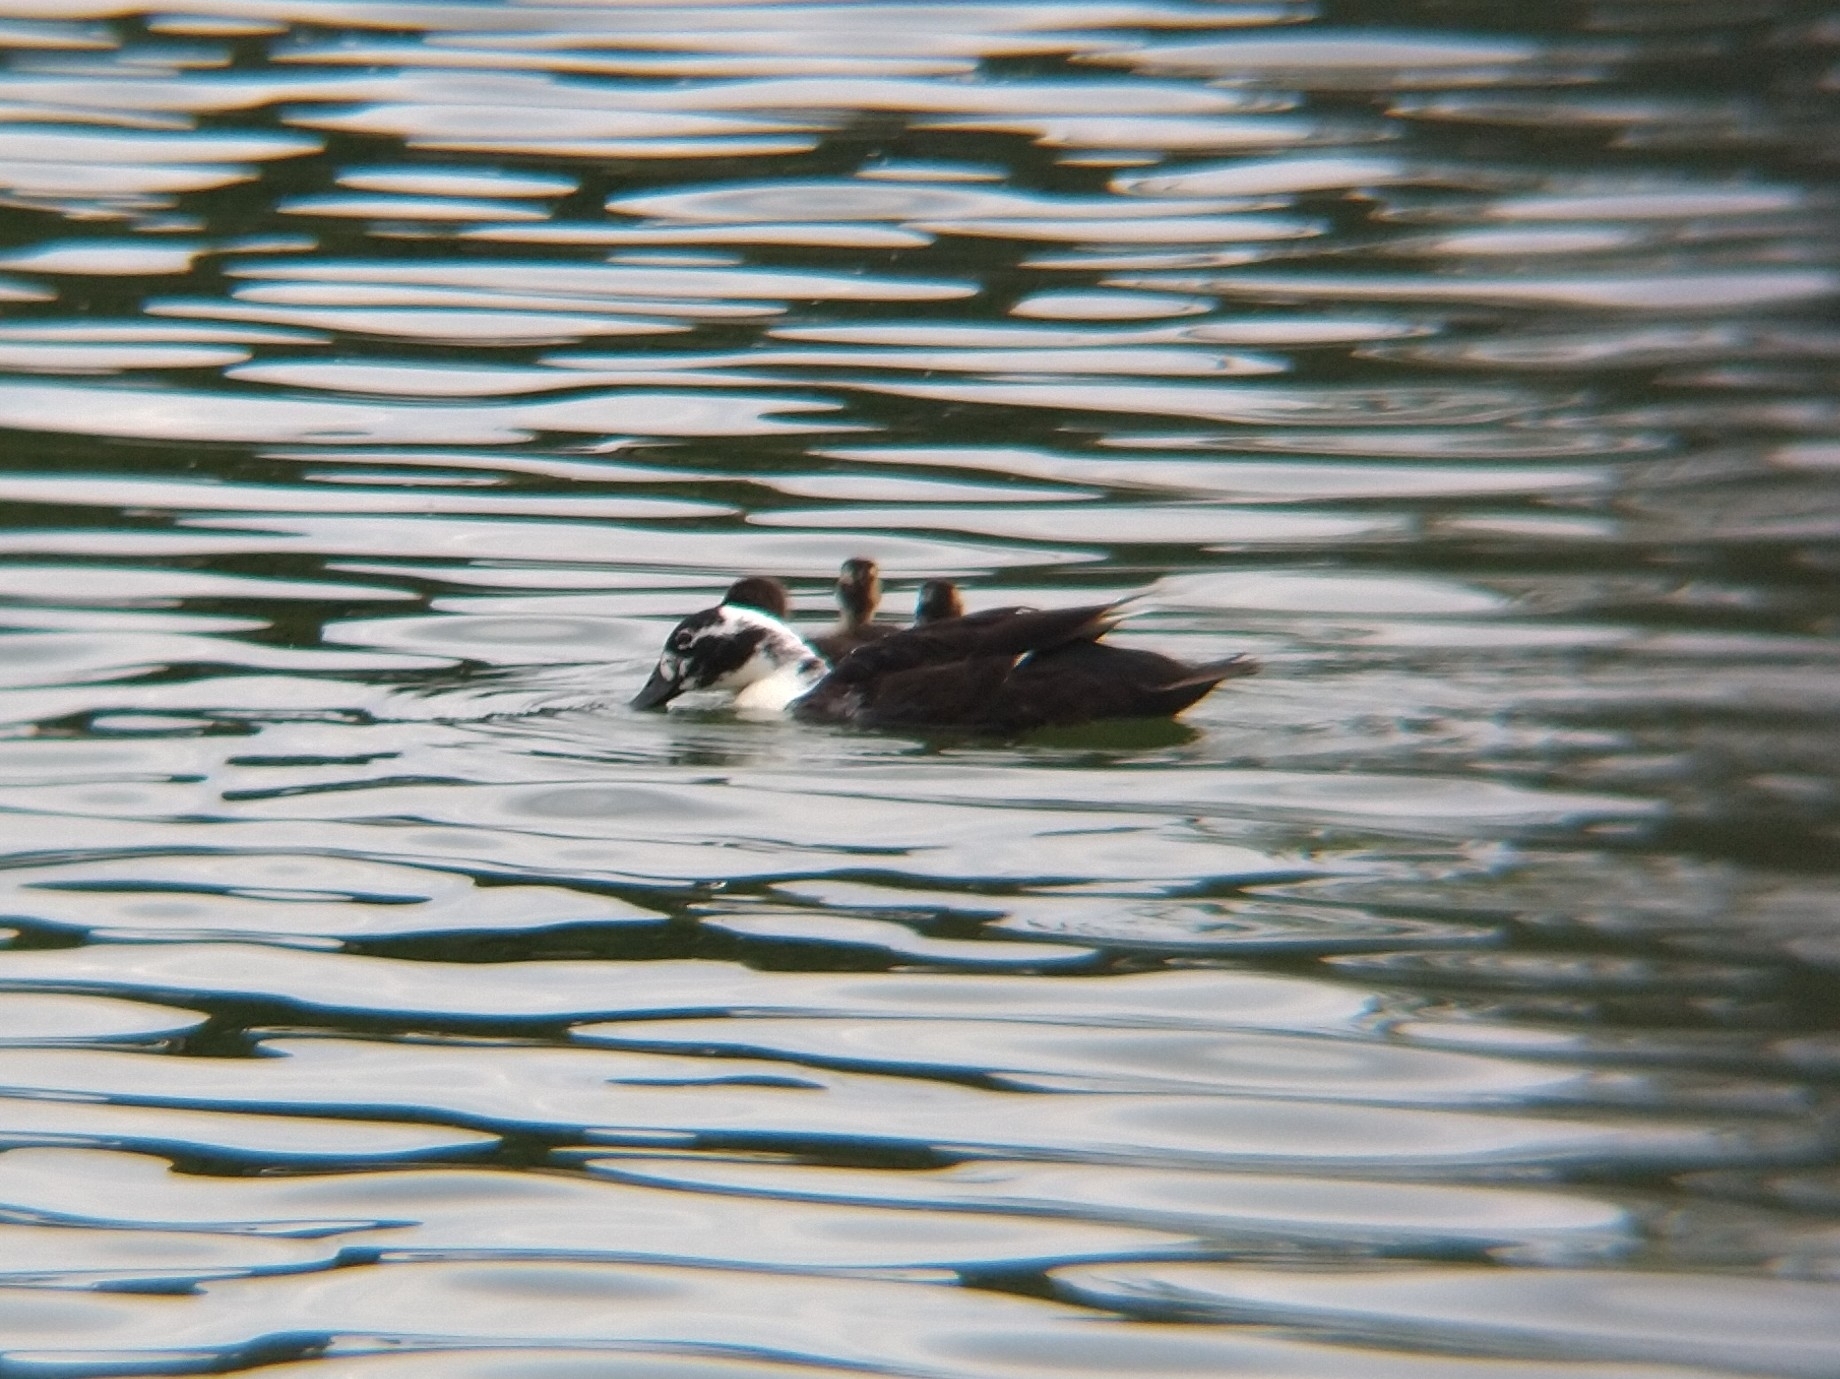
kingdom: Animalia
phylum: Chordata
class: Aves
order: Anseriformes
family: Anatidae
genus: Anas
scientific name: Anas platyrhynchos
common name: Mallard
